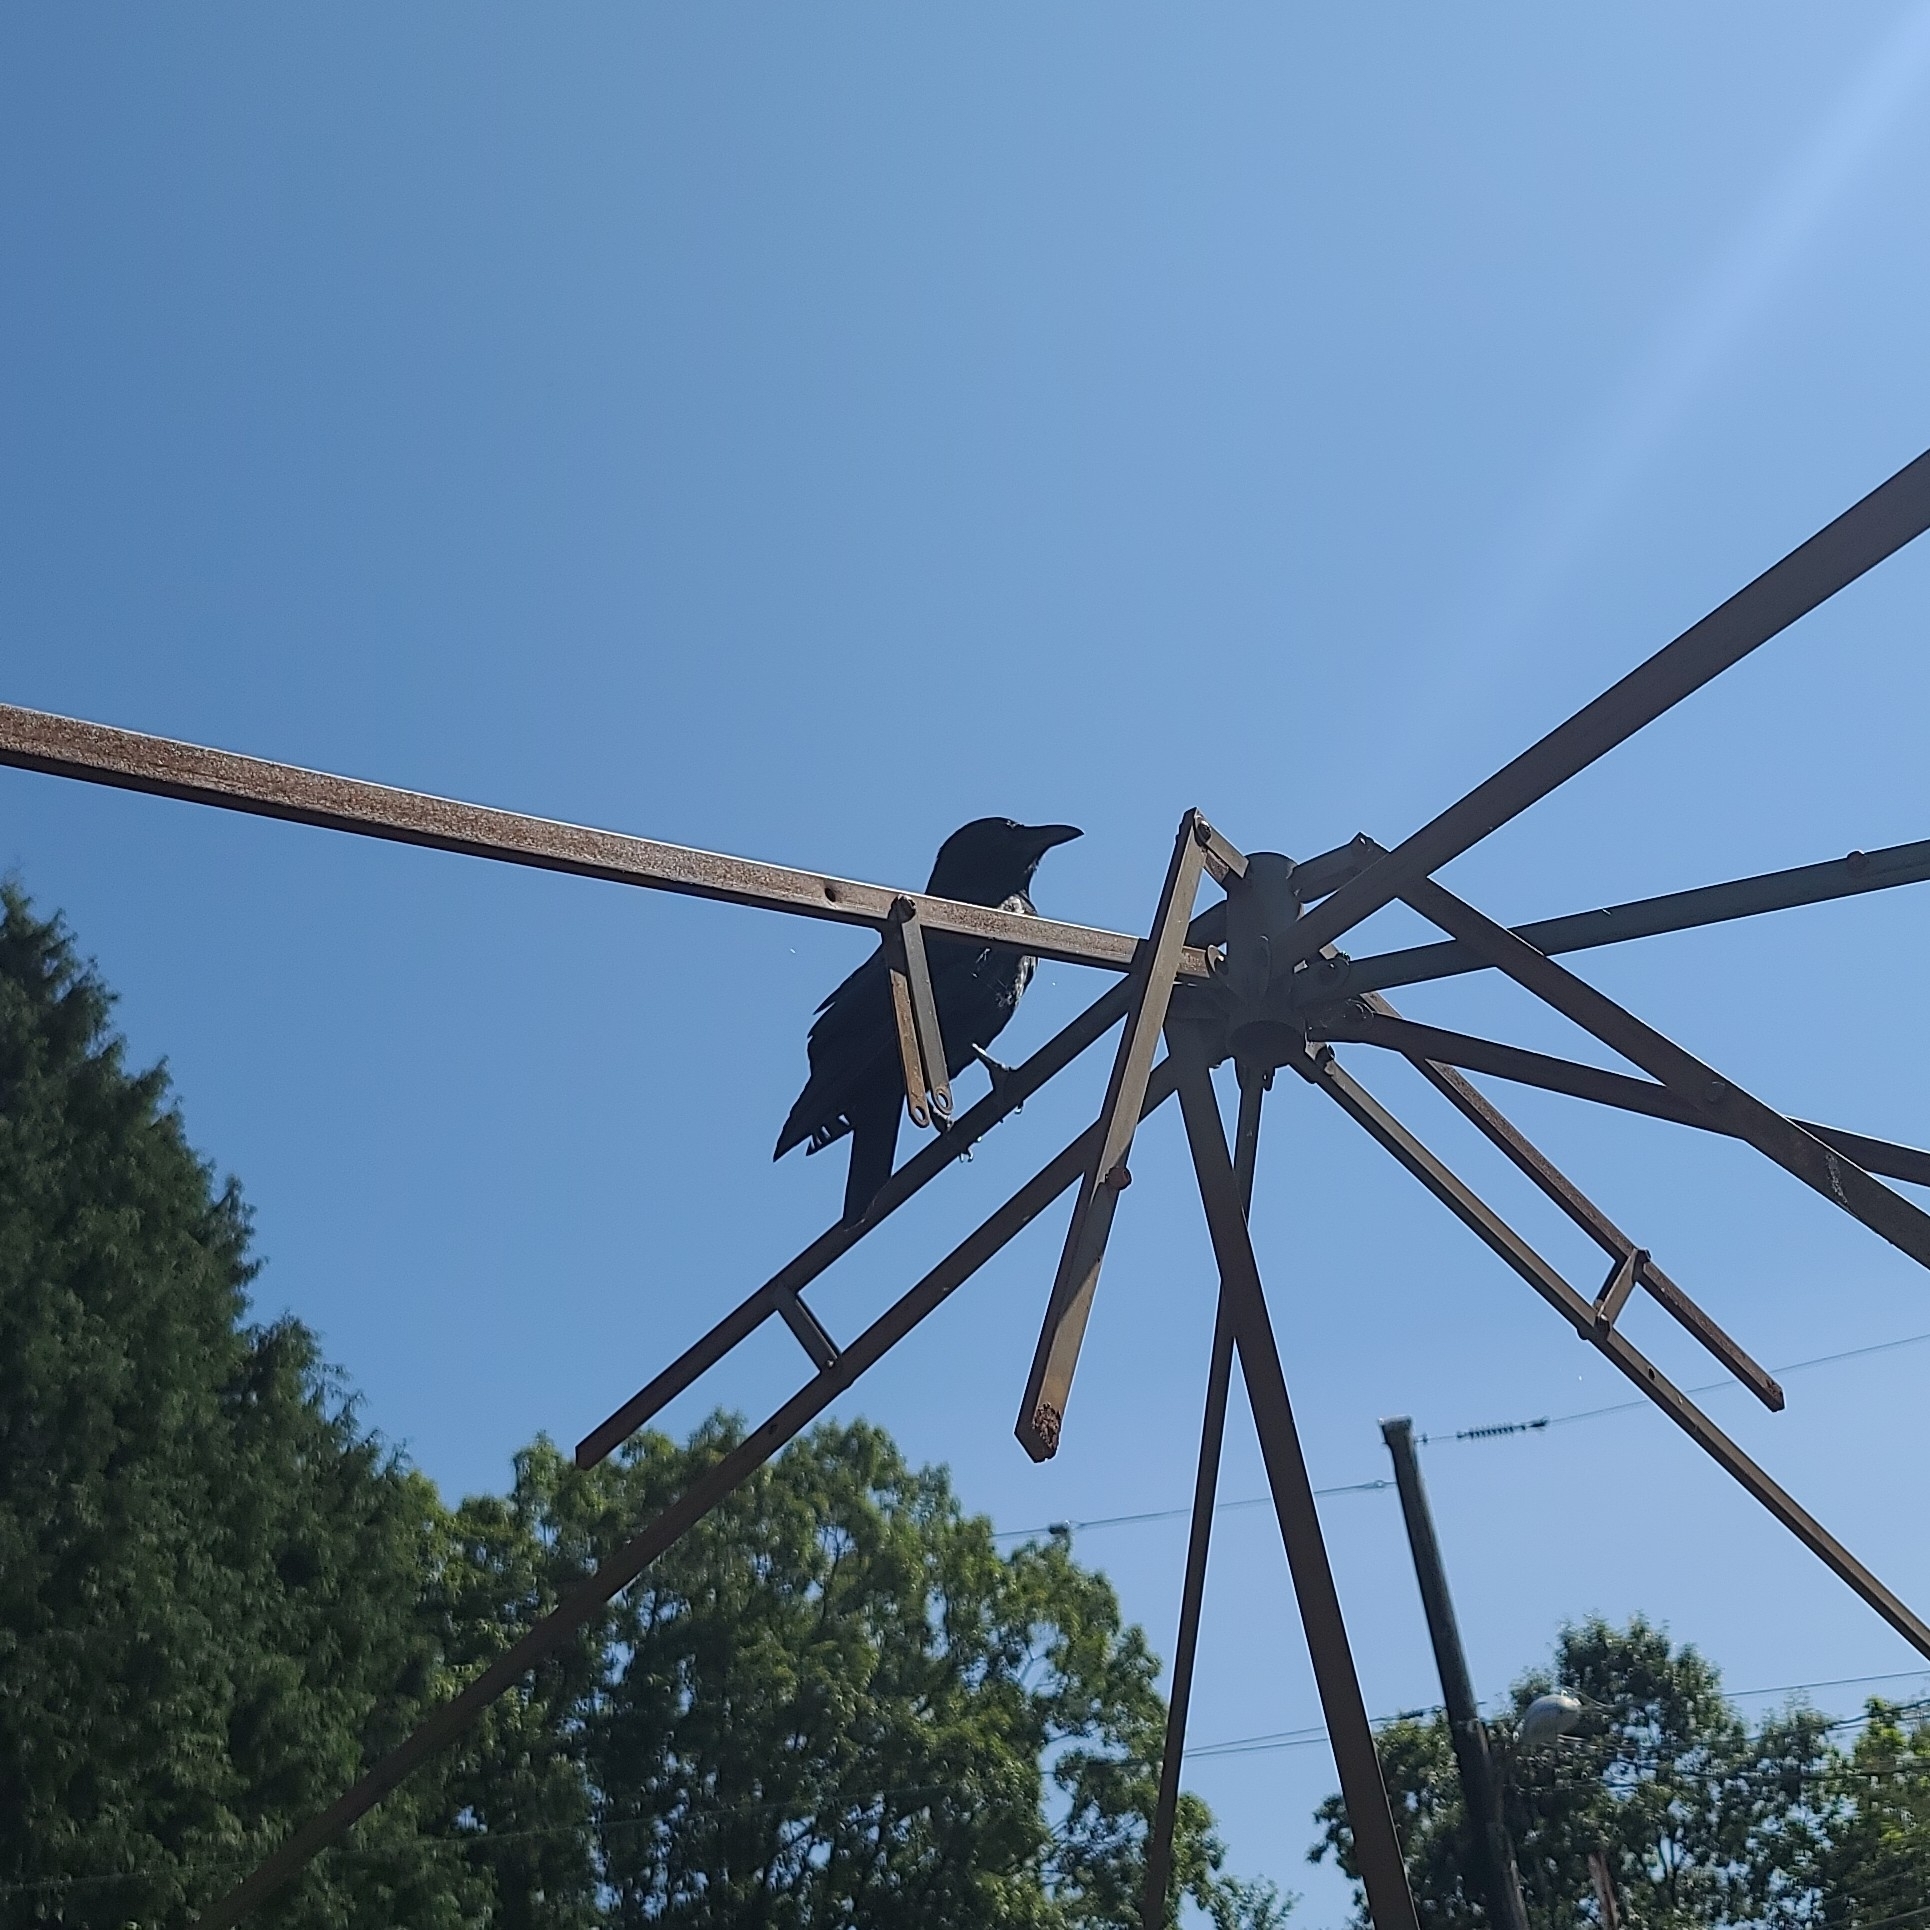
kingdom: Animalia
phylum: Chordata
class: Aves
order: Passeriformes
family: Corvidae
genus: Corvus
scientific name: Corvus brachyrhynchos
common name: American crow
